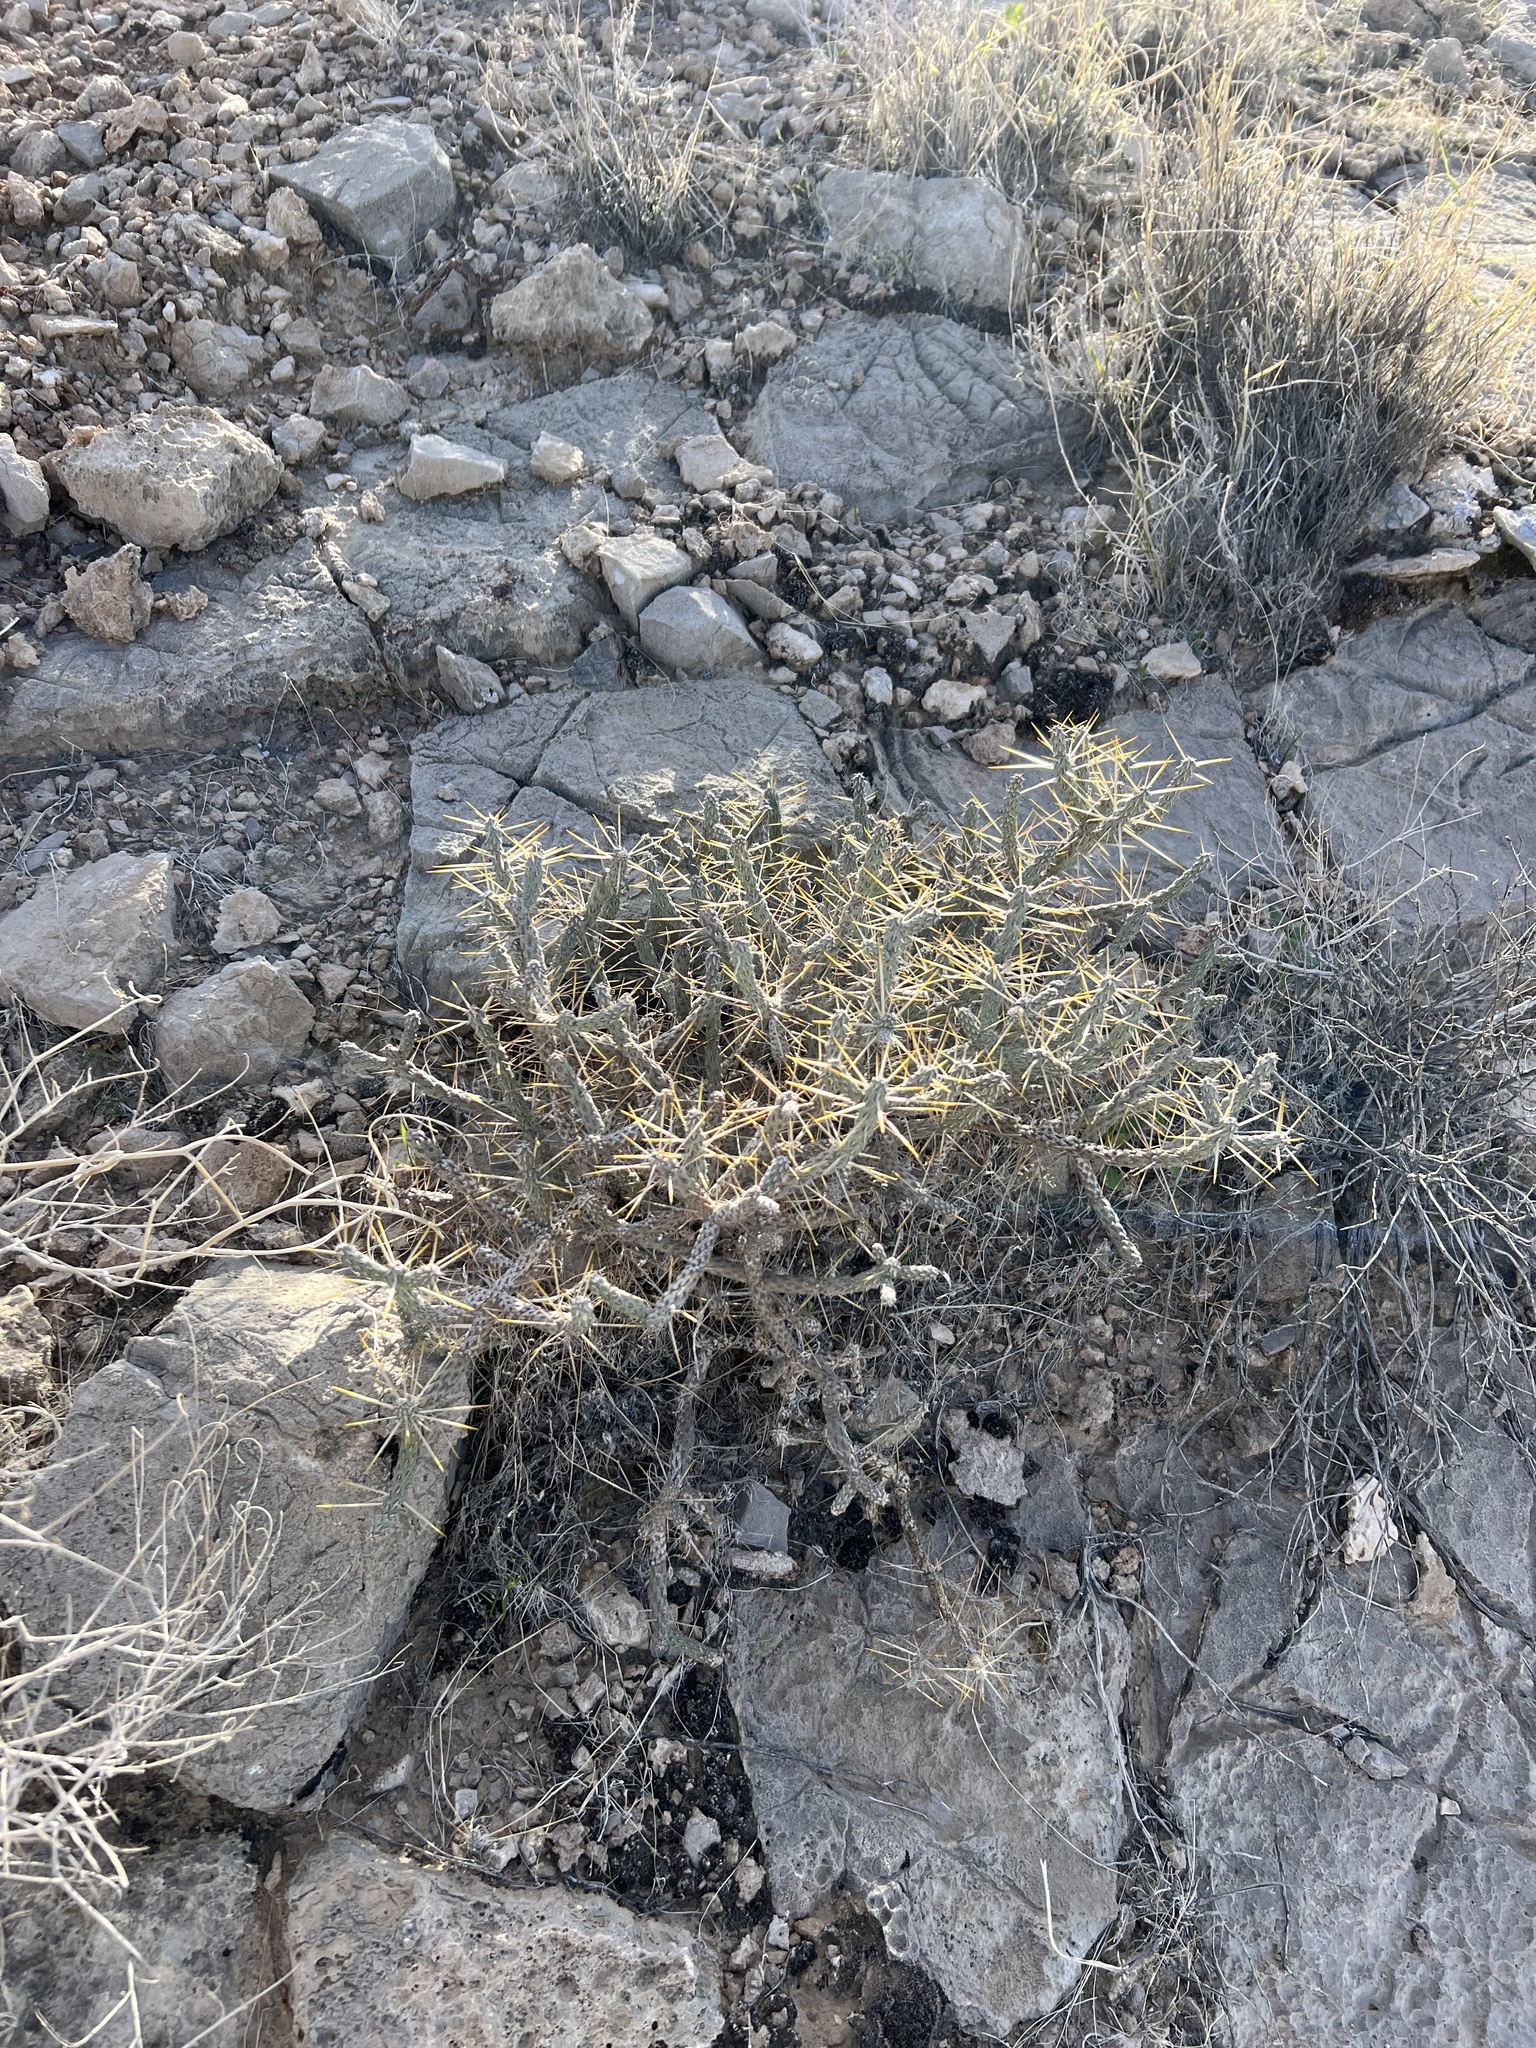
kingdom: Plantae
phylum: Tracheophyta
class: Magnoliopsida
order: Caryophyllales
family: Cactaceae
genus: Cylindropuntia
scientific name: Cylindropuntia ramosissima
